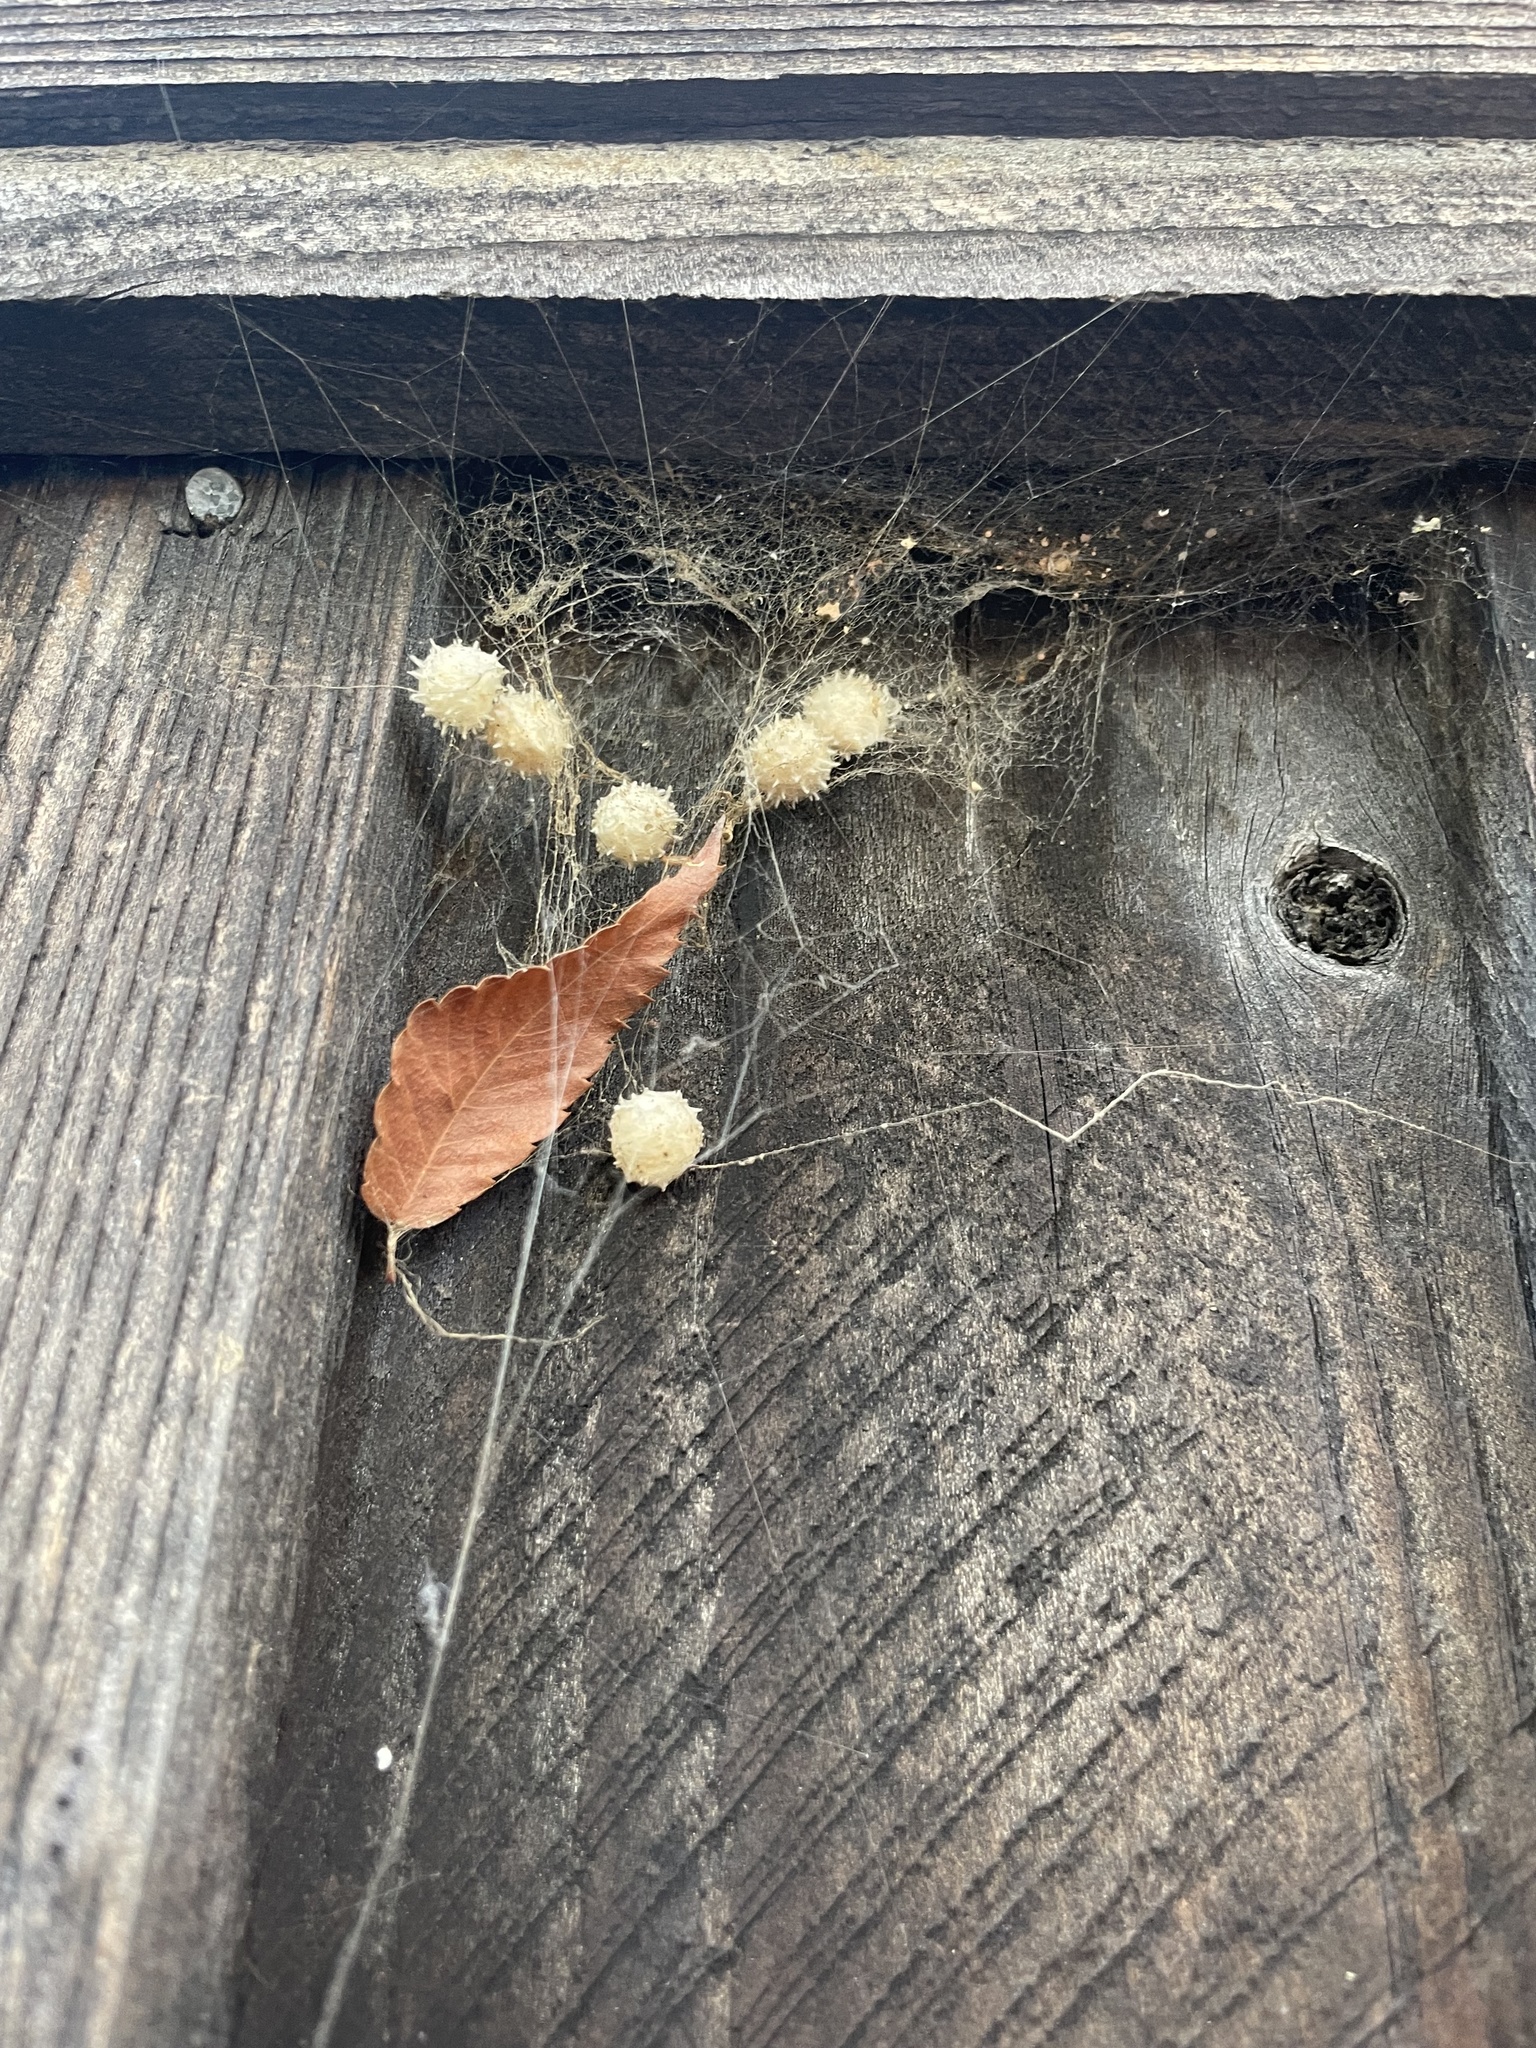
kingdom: Animalia
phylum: Arthropoda
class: Arachnida
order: Araneae
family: Theridiidae
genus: Latrodectus
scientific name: Latrodectus geometricus
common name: Brown widow spider
